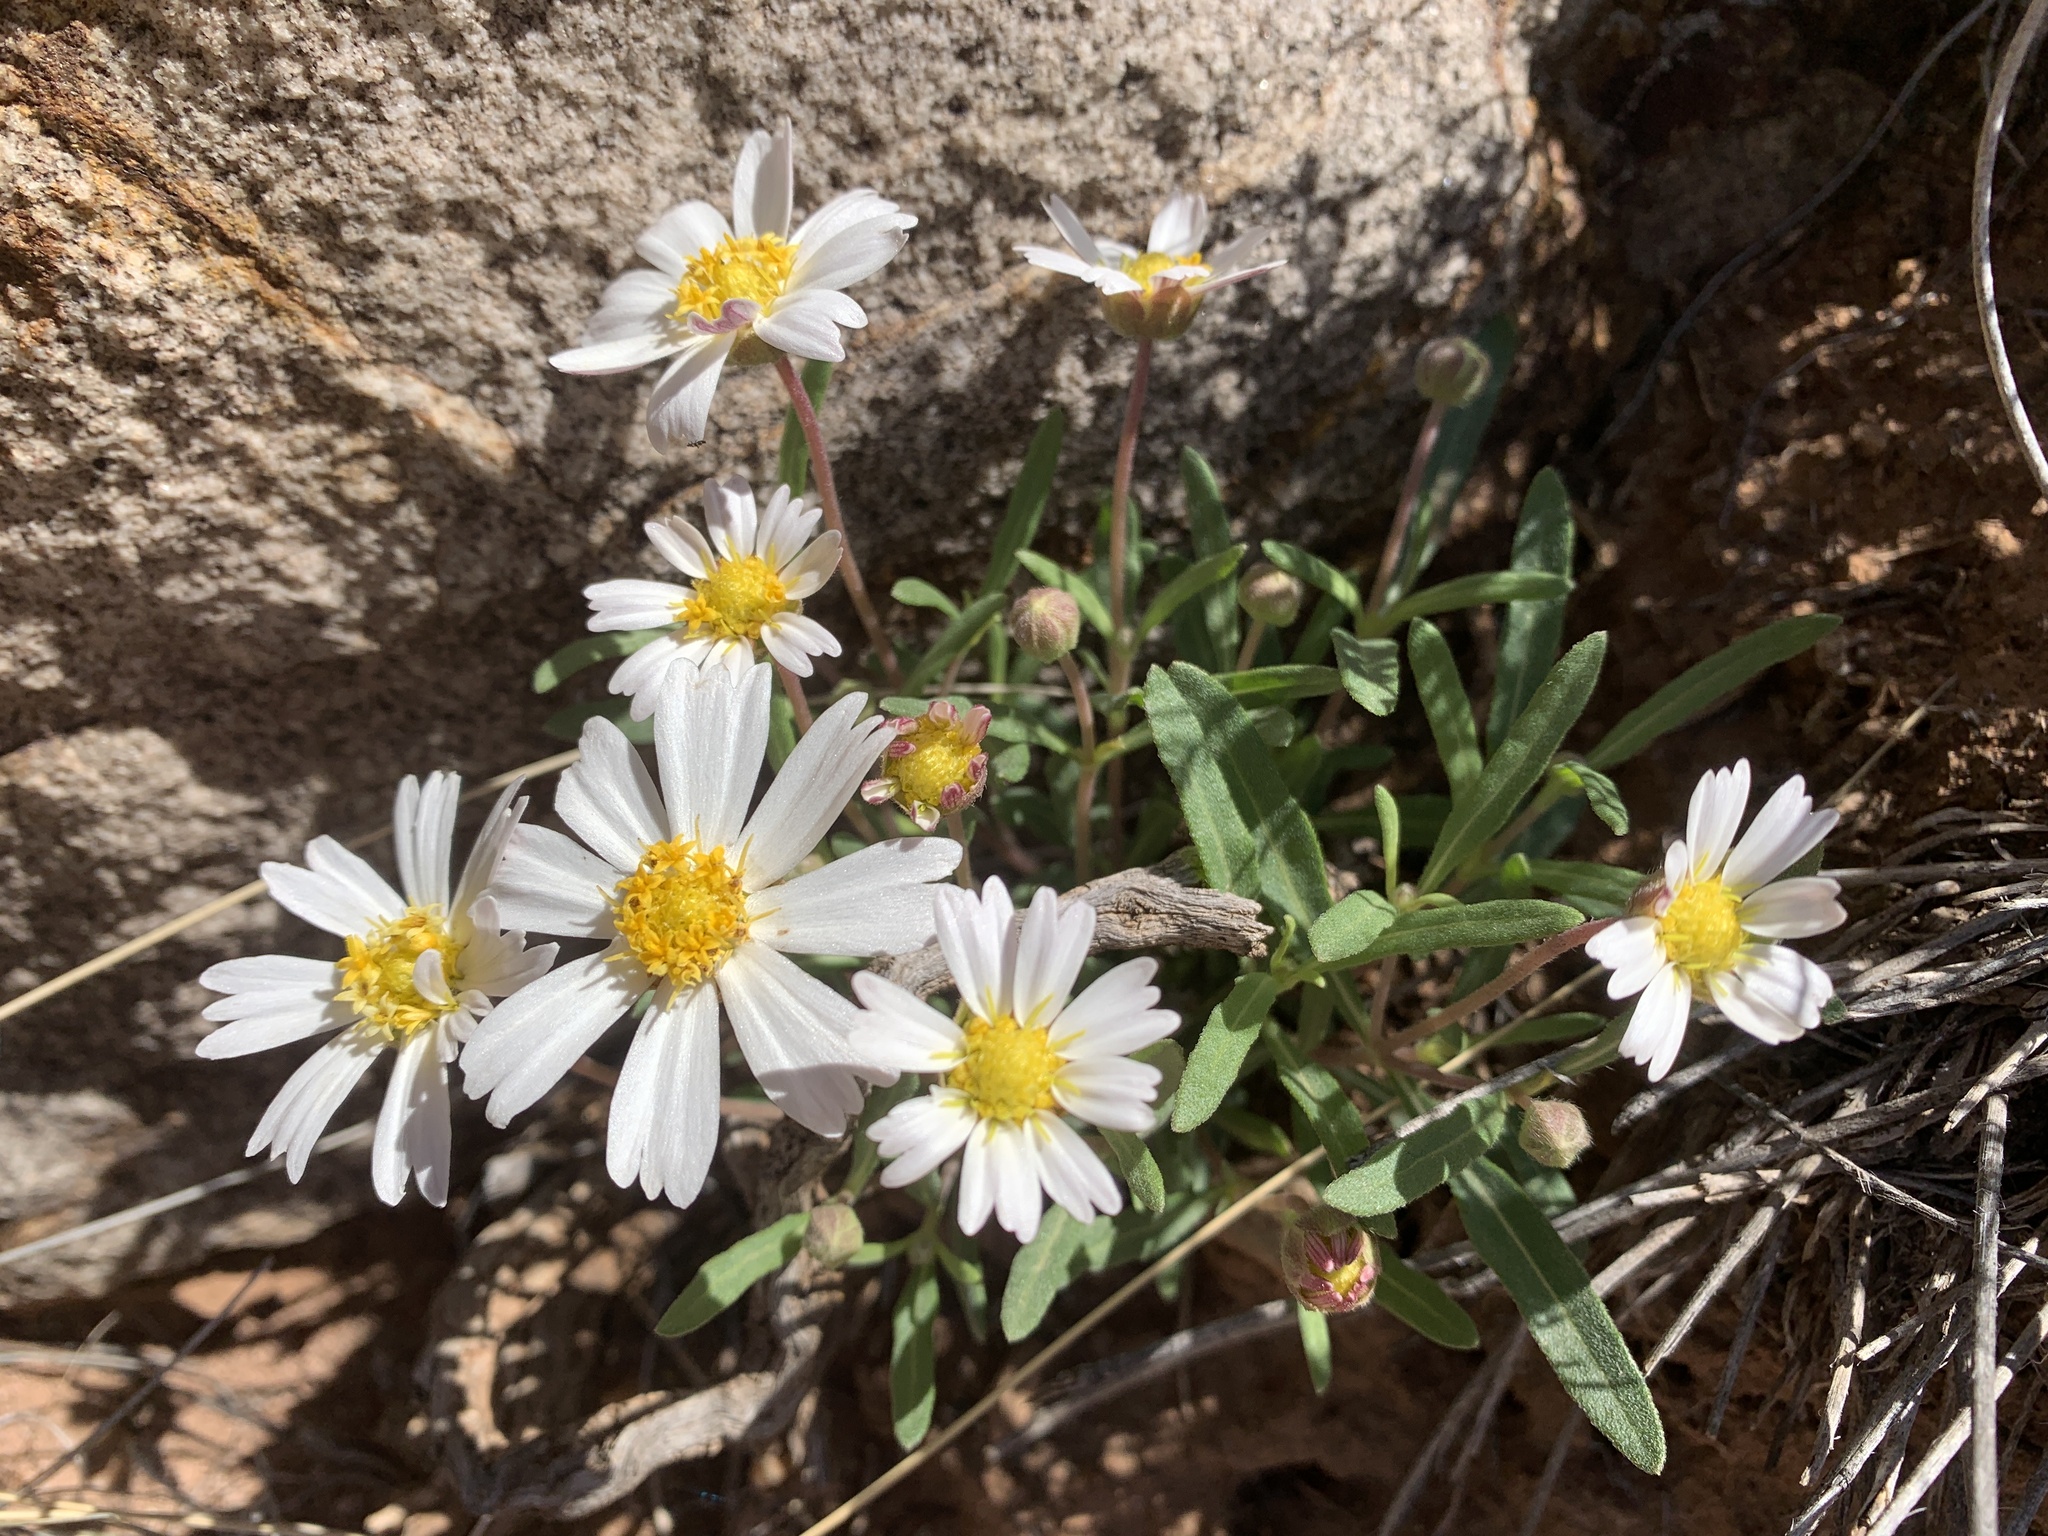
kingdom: Plantae
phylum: Tracheophyta
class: Magnoliopsida
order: Asterales
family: Asteraceae
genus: Melampodium
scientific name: Melampodium leucanthum
